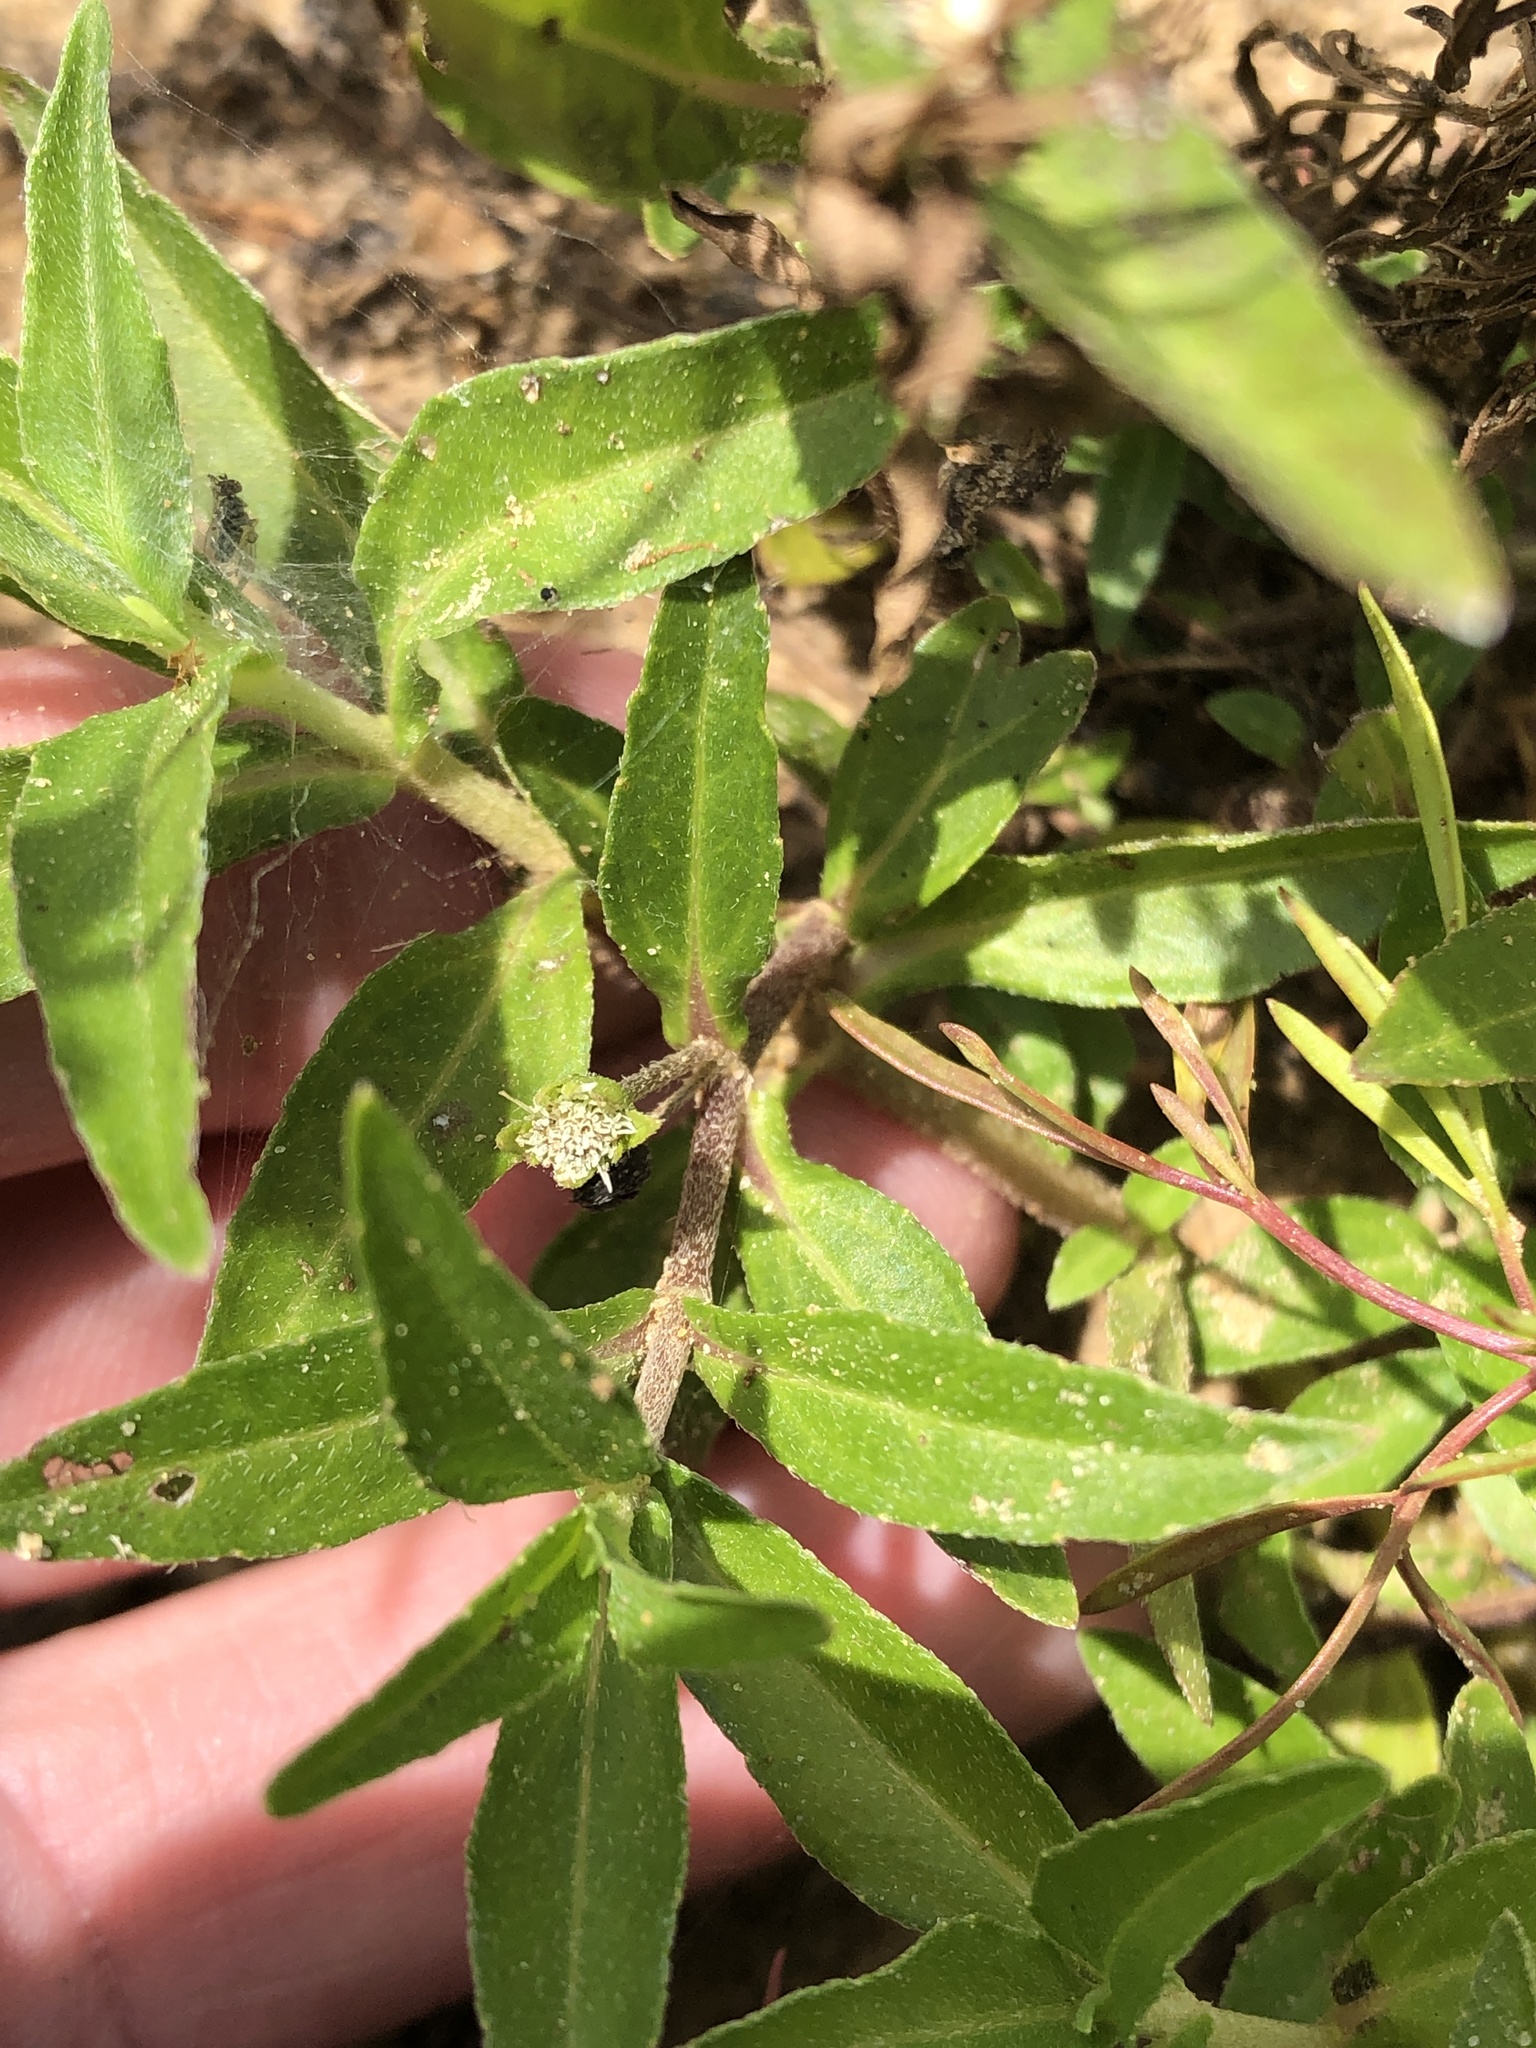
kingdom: Plantae
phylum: Tracheophyta
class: Magnoliopsida
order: Asterales
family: Asteraceae
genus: Eclipta
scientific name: Eclipta prostrata
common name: False daisy
